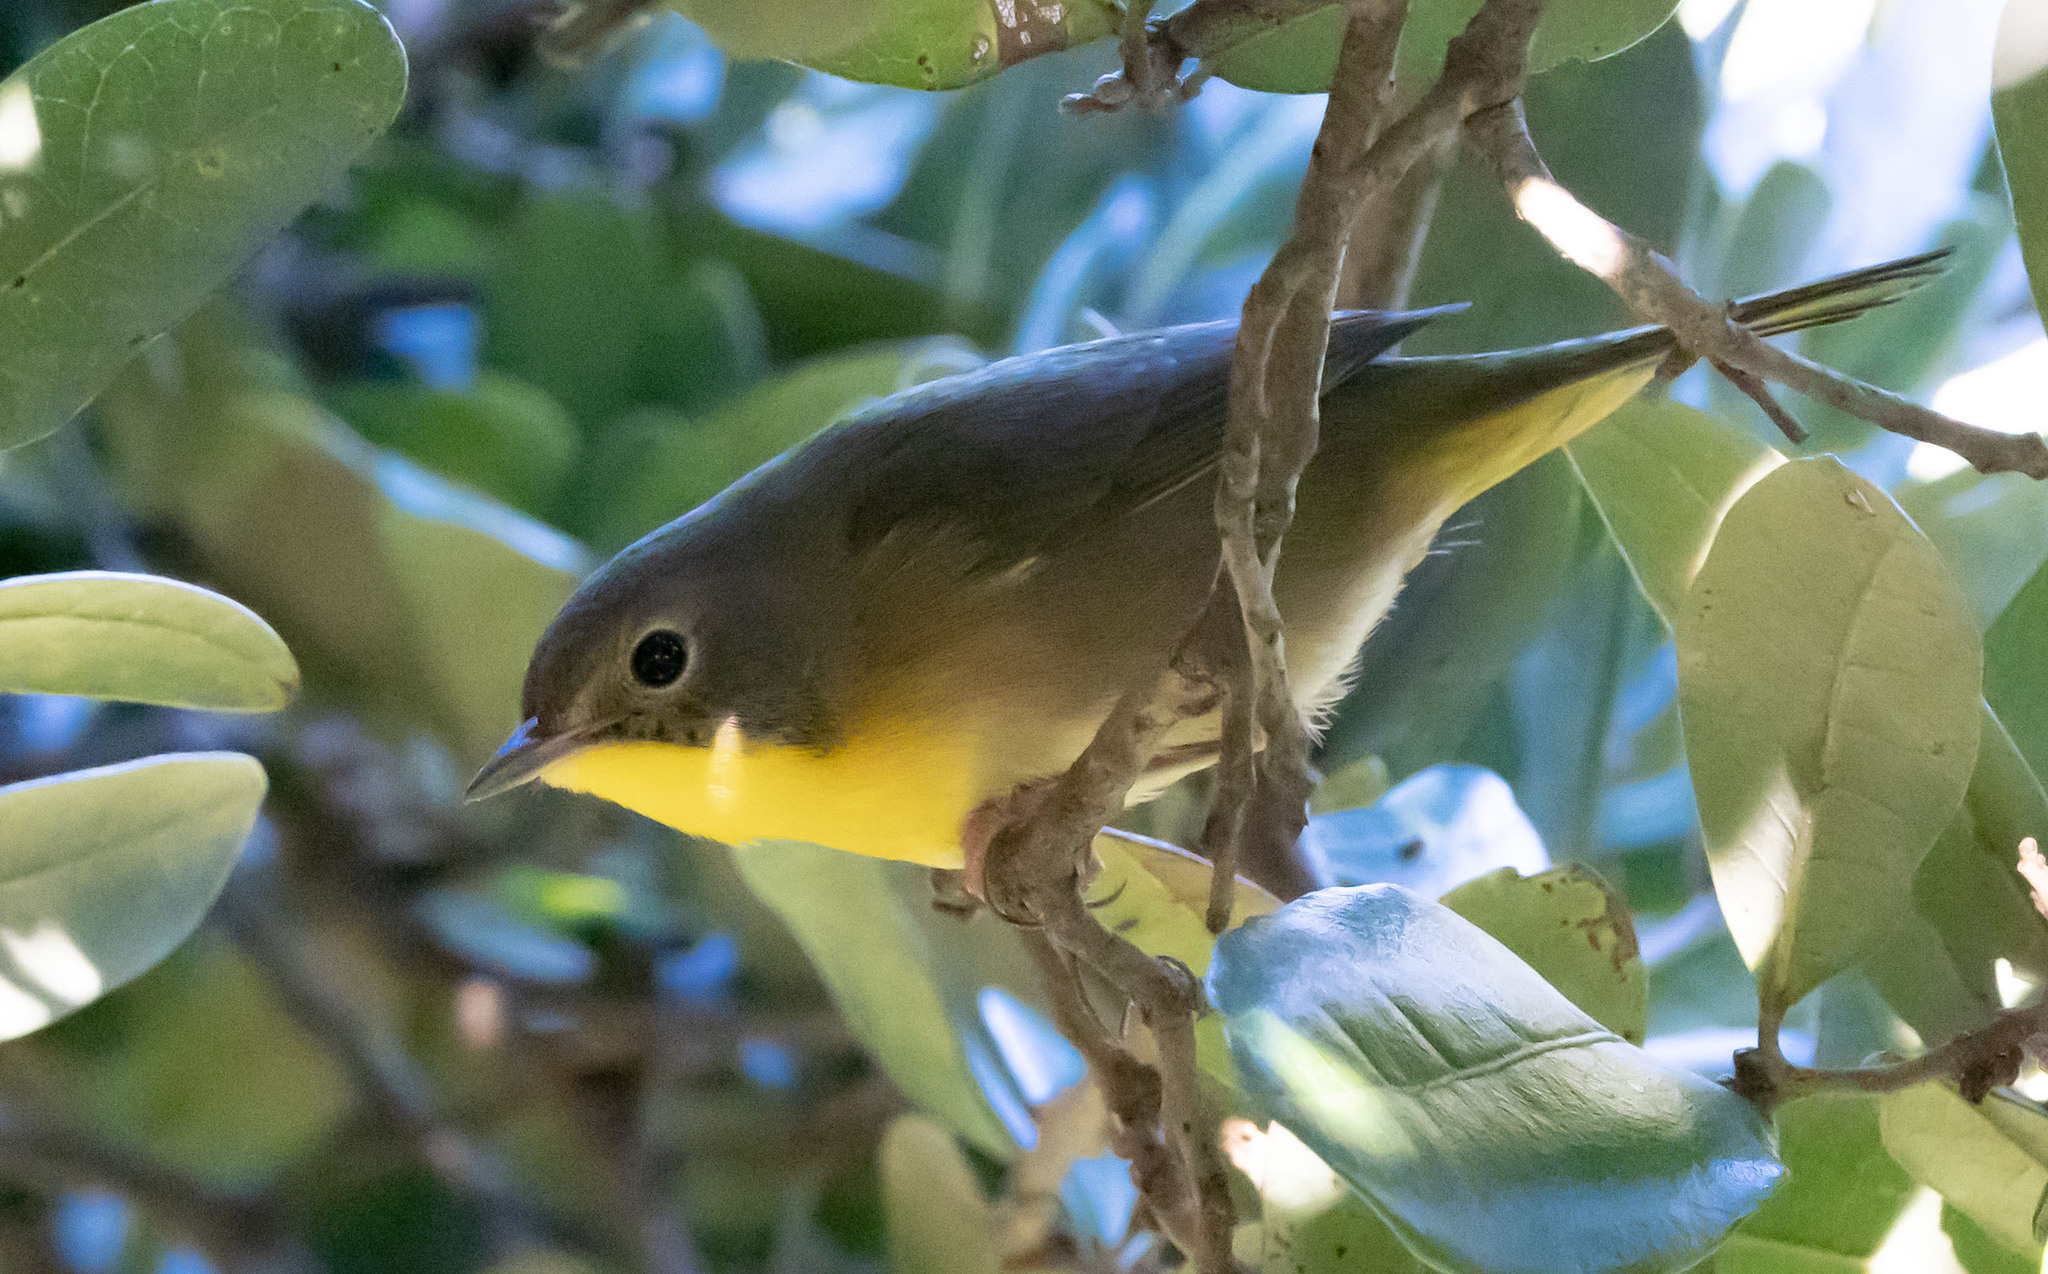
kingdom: Animalia
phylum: Chordata
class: Aves
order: Passeriformes
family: Parulidae
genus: Geothlypis
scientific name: Geothlypis trichas
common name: Common yellowthroat
